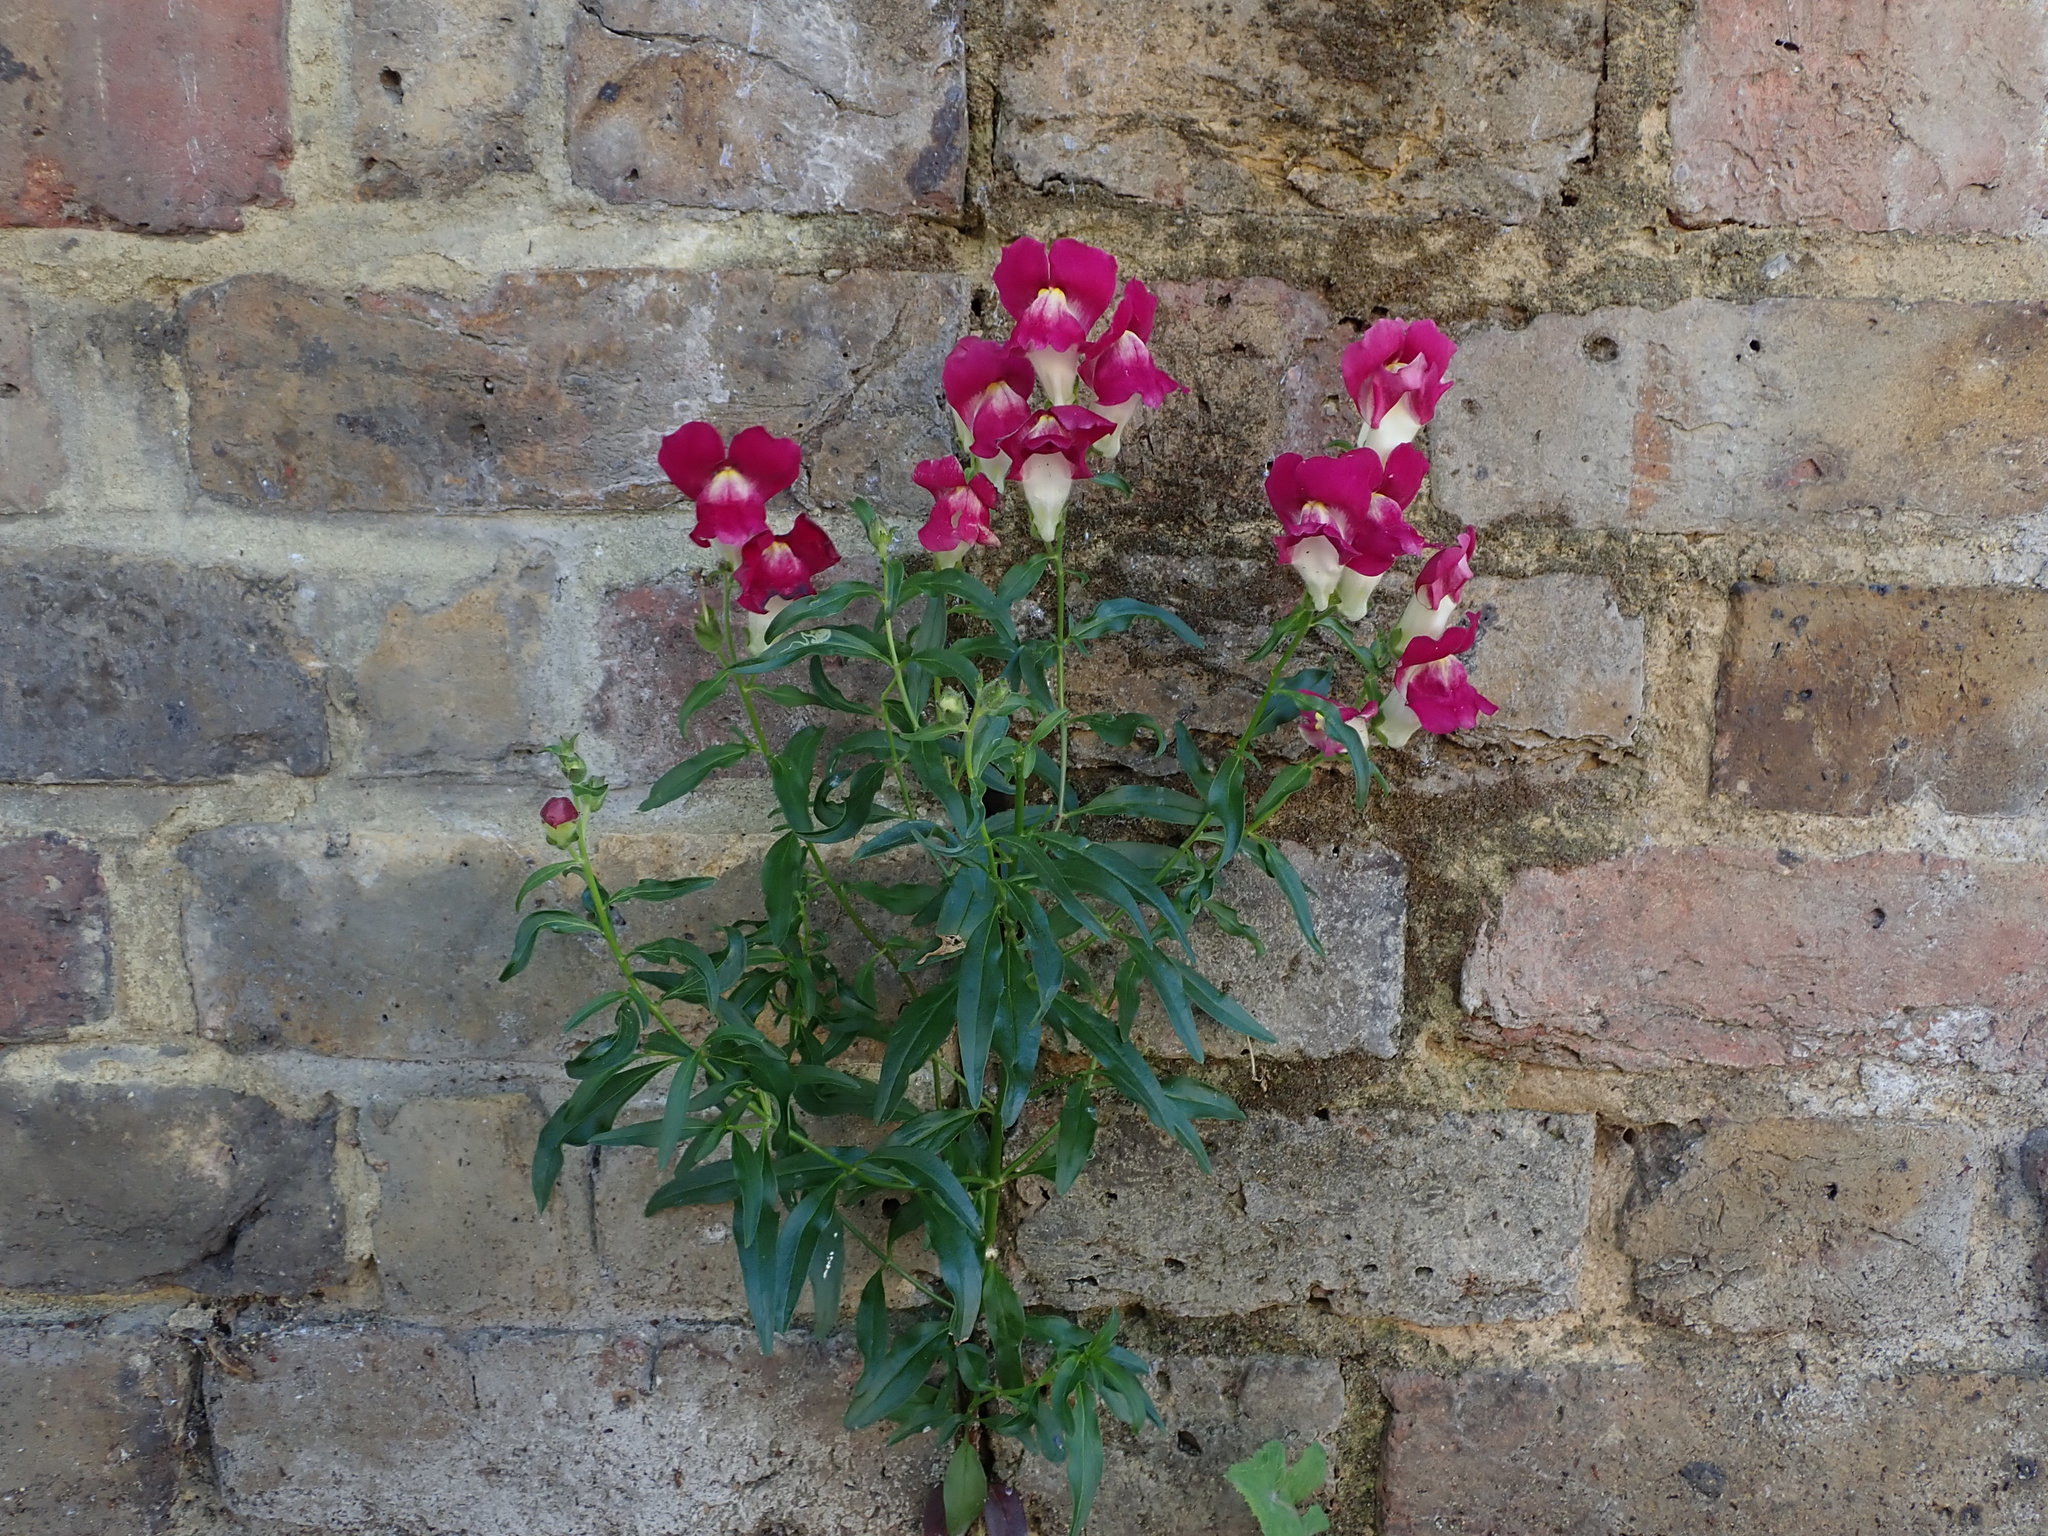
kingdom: Plantae
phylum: Tracheophyta
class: Magnoliopsida
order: Lamiales
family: Plantaginaceae
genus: Antirrhinum
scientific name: Antirrhinum majus
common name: Snapdragon
